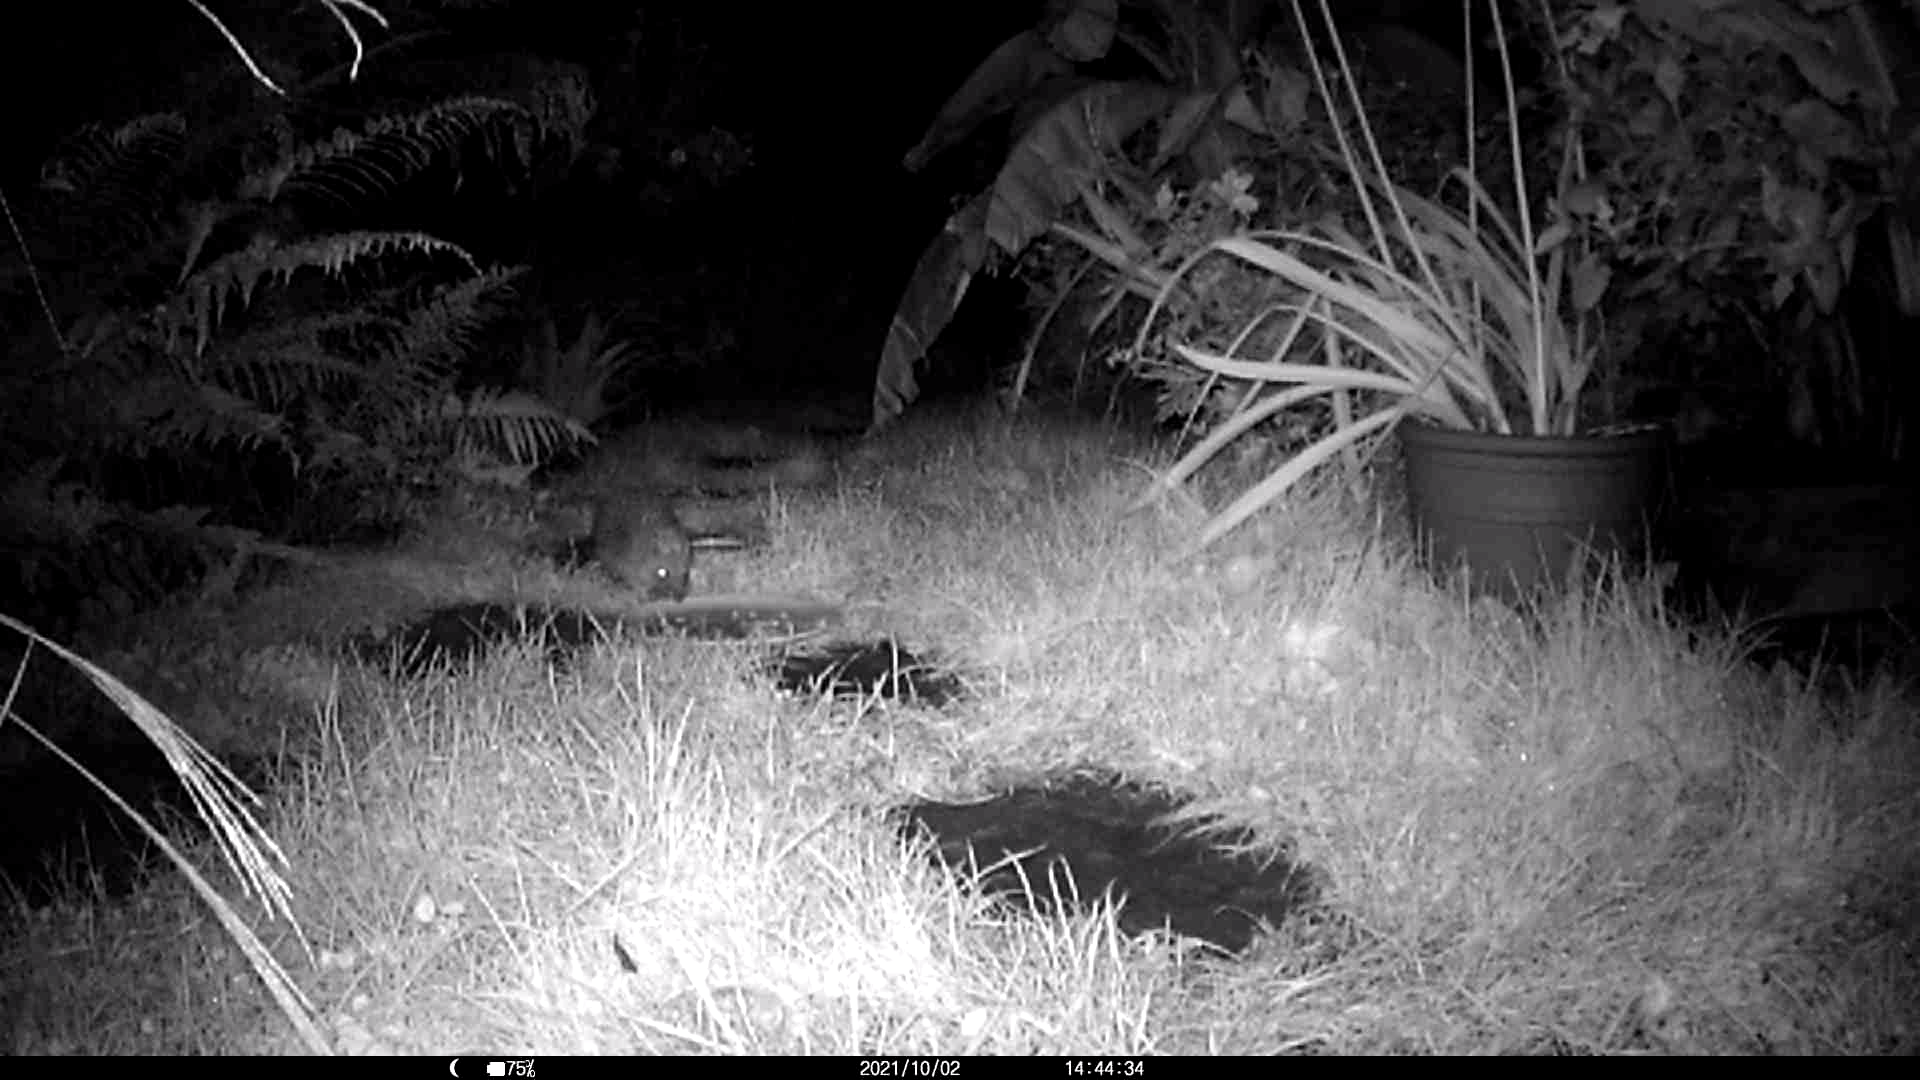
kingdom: Animalia
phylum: Chordata
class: Mammalia
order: Erinaceomorpha
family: Erinaceidae
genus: Erinaceus
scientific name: Erinaceus europaeus
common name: West european hedgehog
